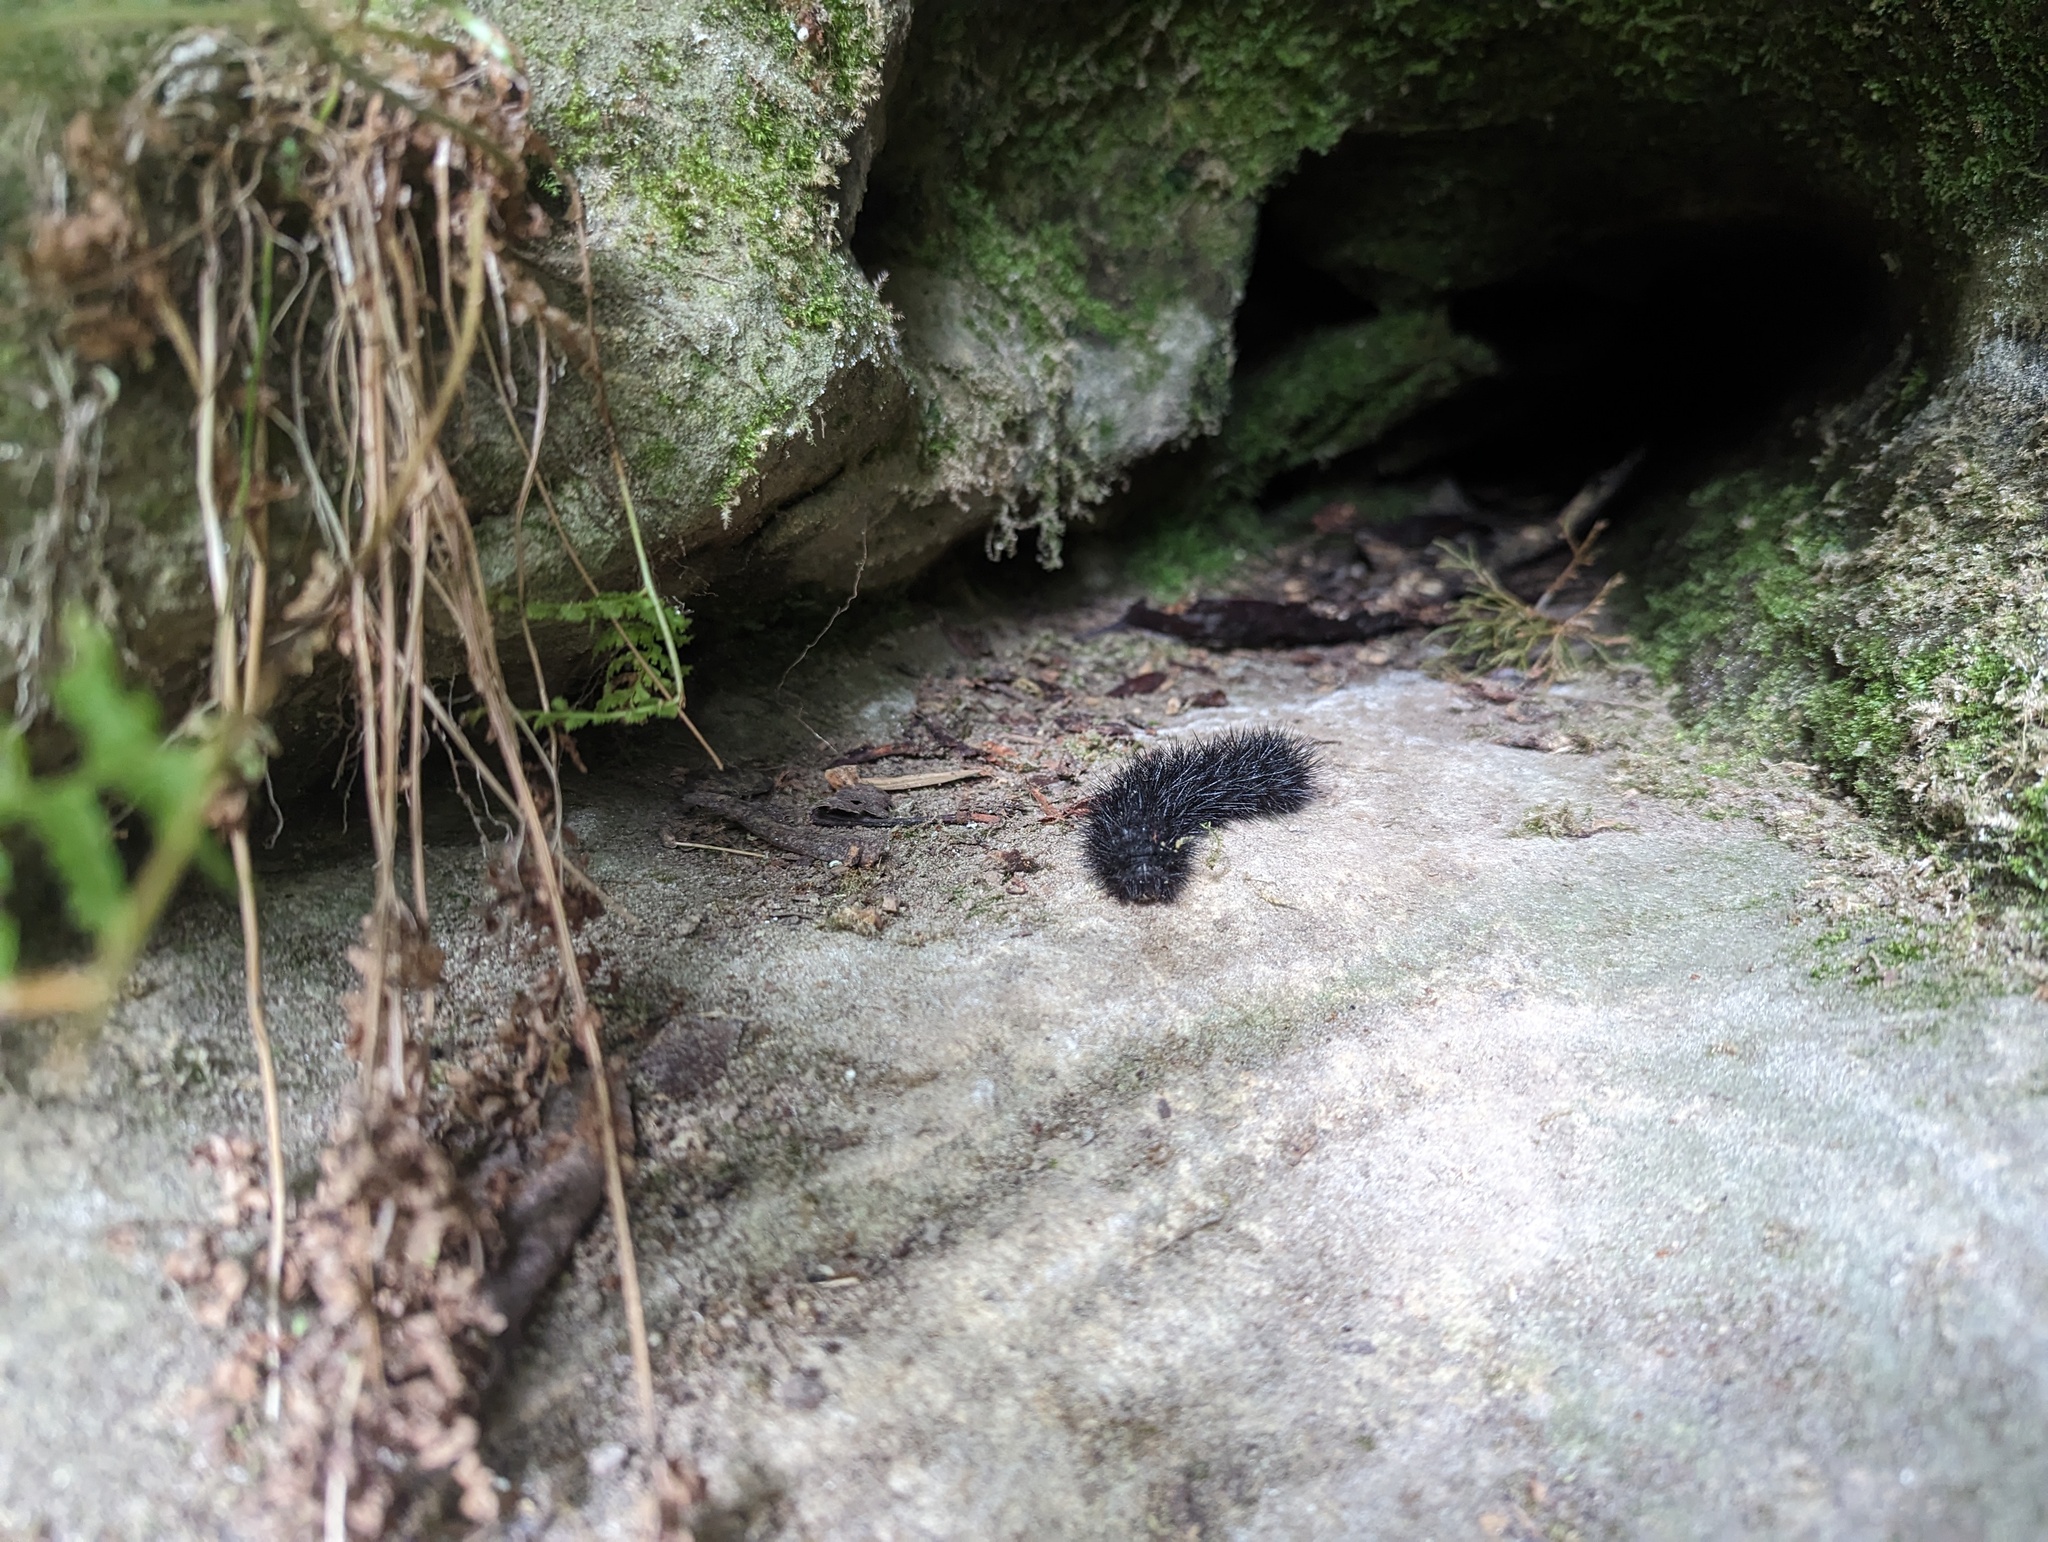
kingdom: Animalia
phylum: Arthropoda
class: Insecta
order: Lepidoptera
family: Erebidae
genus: Hypercompe
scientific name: Hypercompe scribonia
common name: Giant leopard moth
